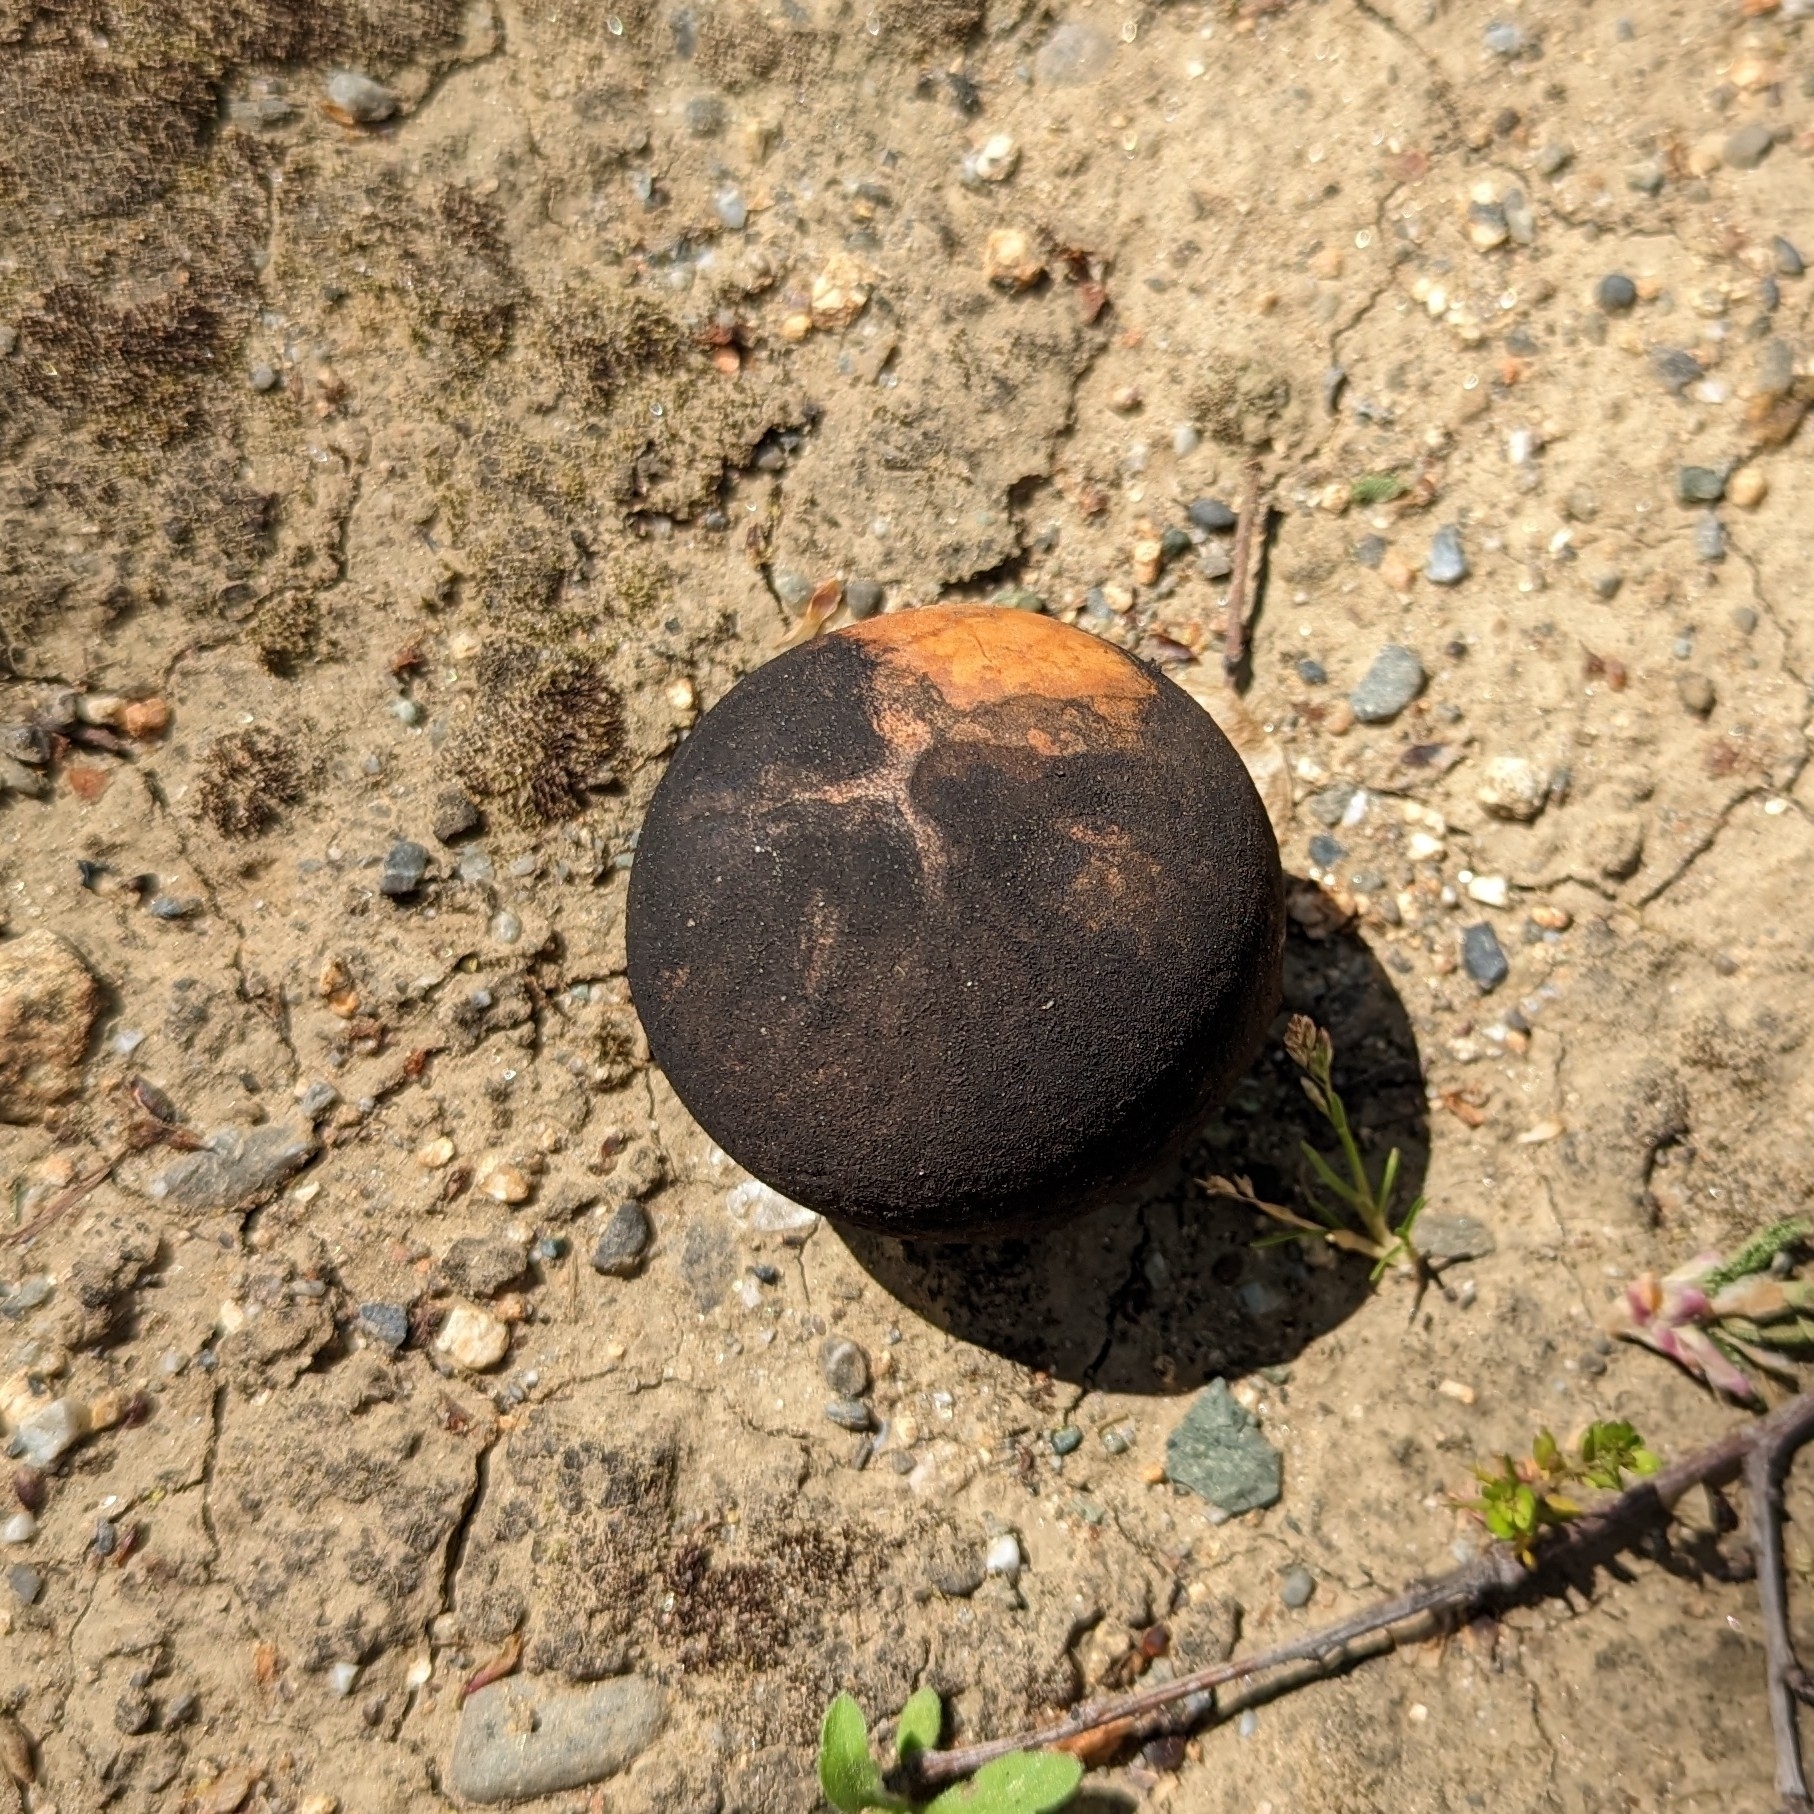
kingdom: Animalia
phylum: Arthropoda
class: Insecta
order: Hymenoptera
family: Cynipidae
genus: Andricus
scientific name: Andricus quercuscalifornicus
